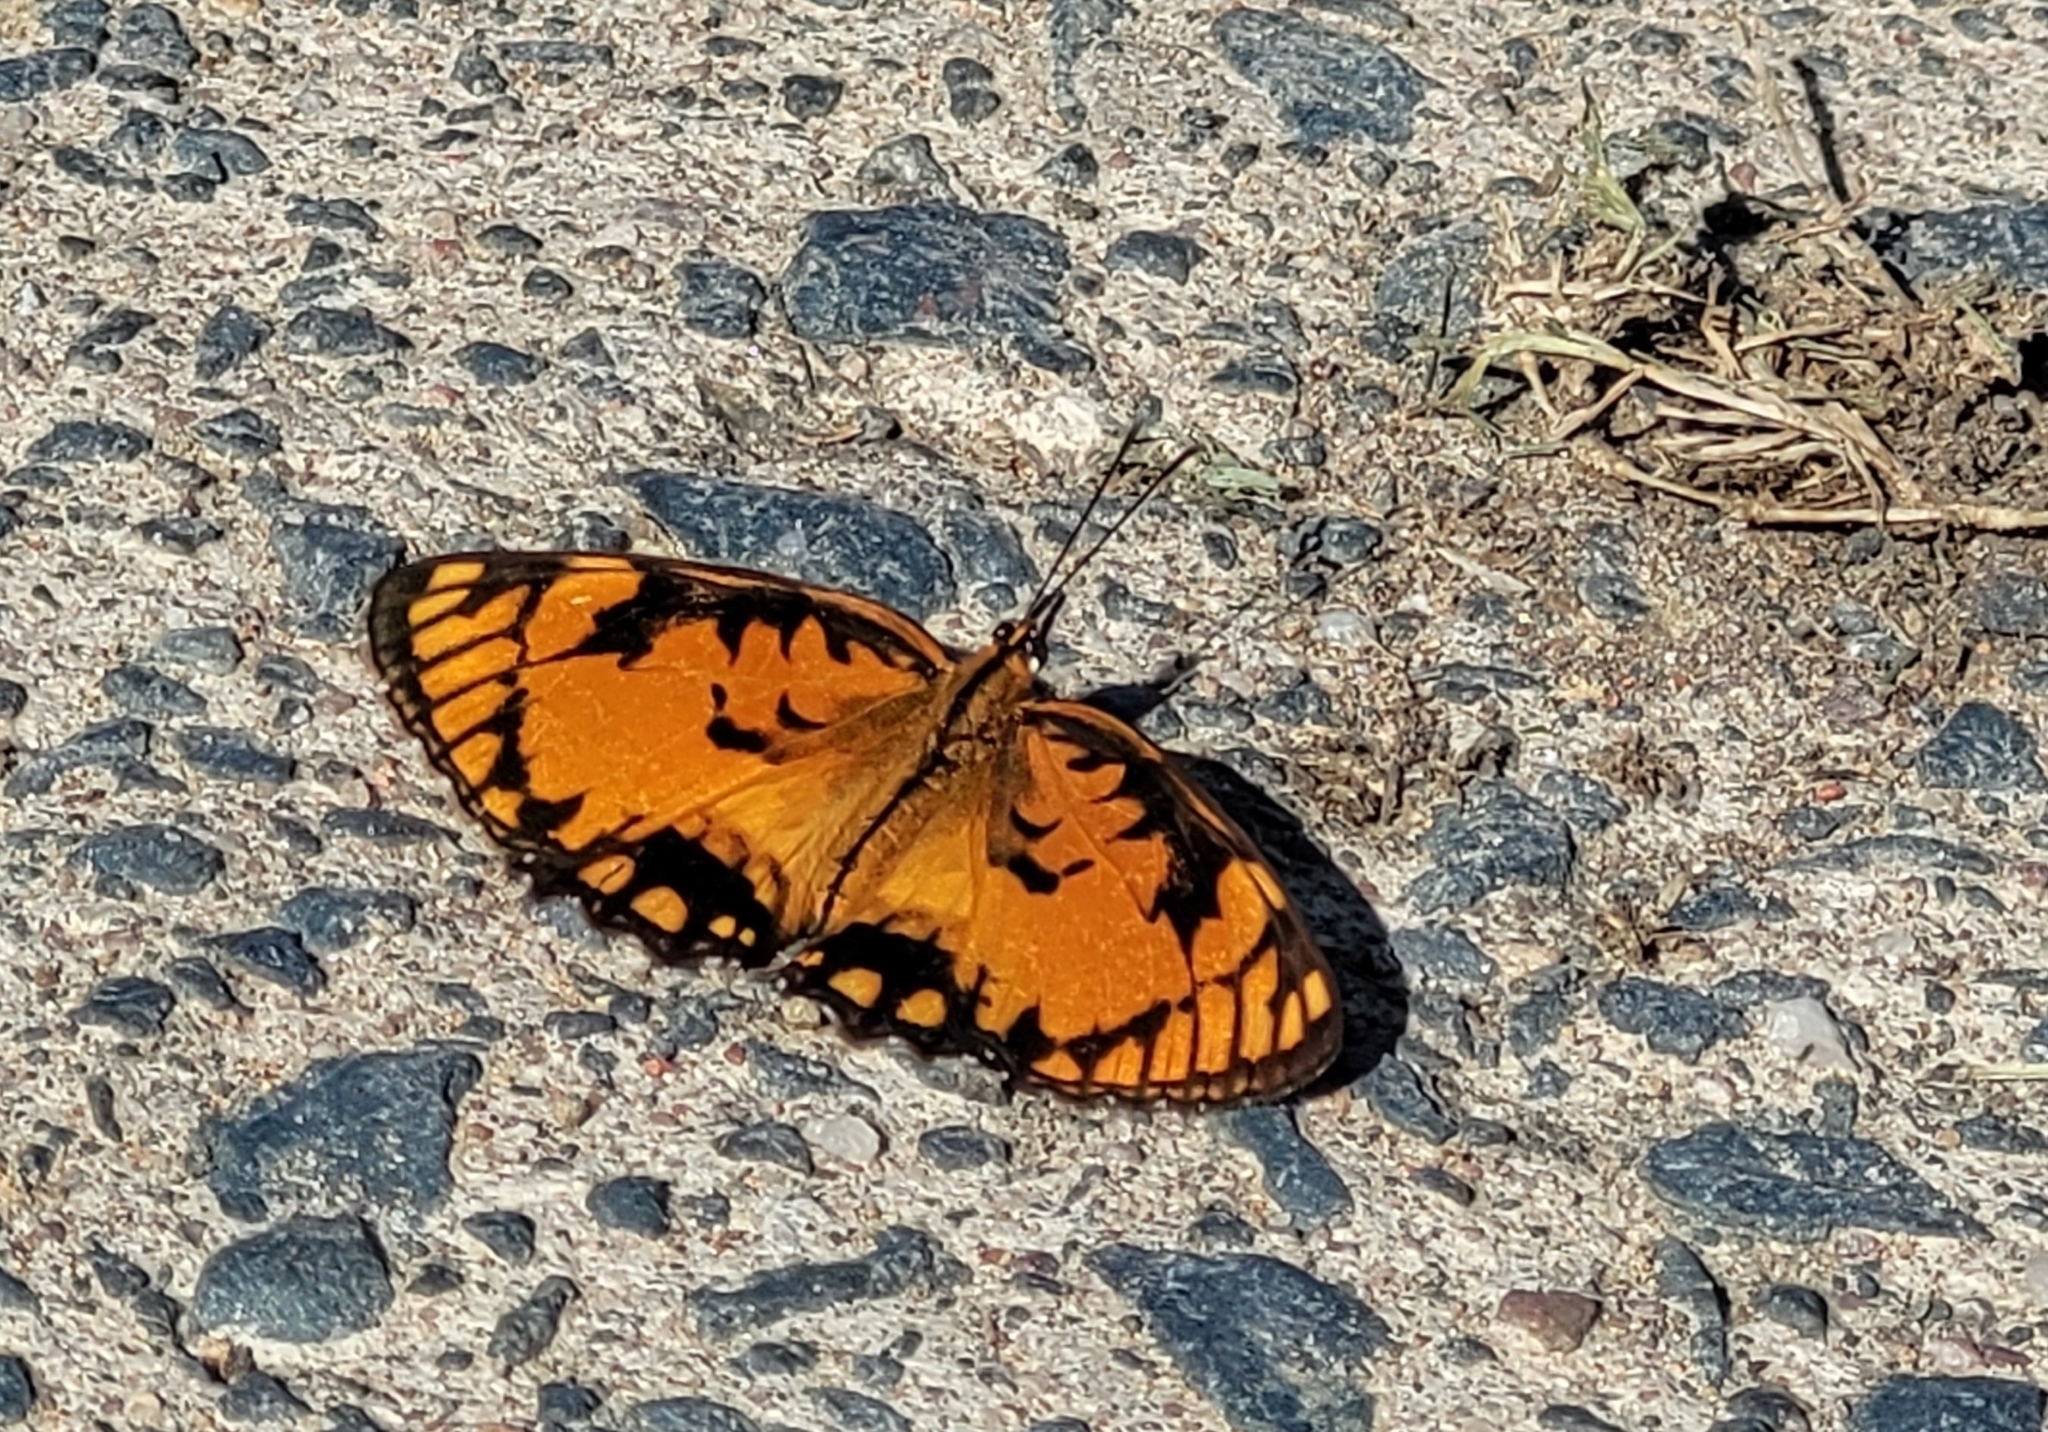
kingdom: Animalia
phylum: Arthropoda
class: Insecta
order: Lepidoptera
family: Nymphalidae
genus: Byblia
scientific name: Byblia acheloia
